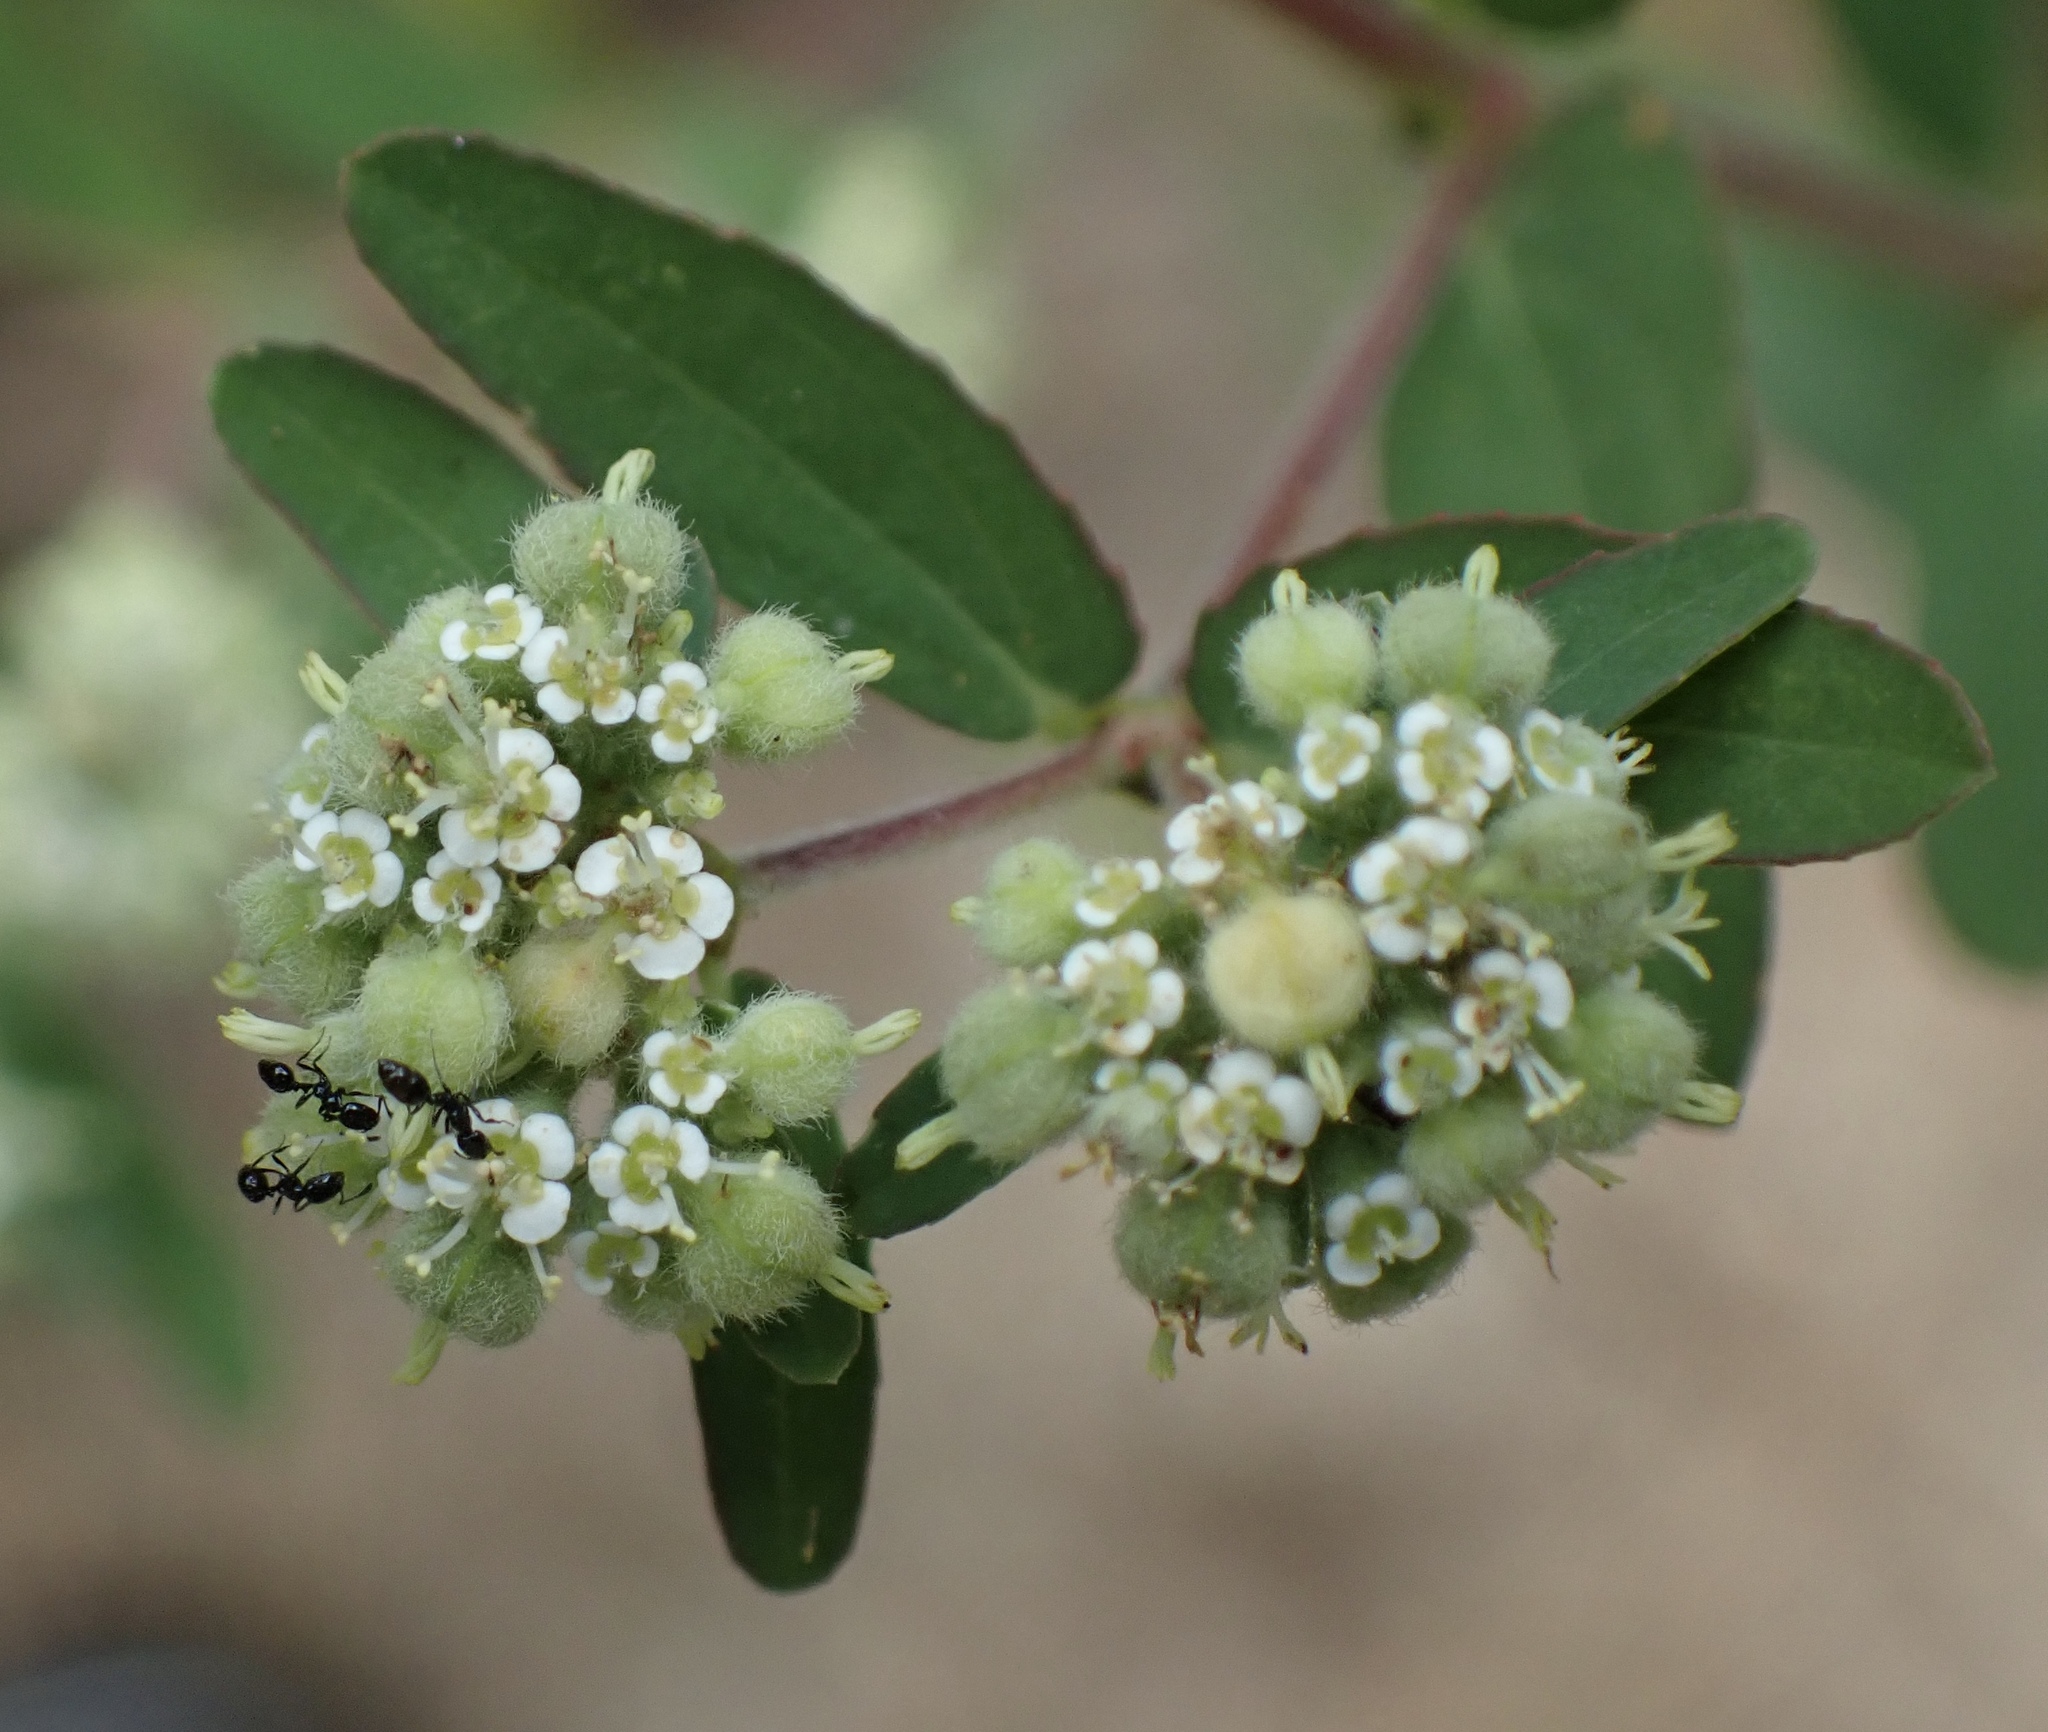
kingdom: Plantae
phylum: Tracheophyta
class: Magnoliopsida
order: Malpighiales
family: Euphorbiaceae
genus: Euphorbia
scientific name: Euphorbia lasiocarpa
